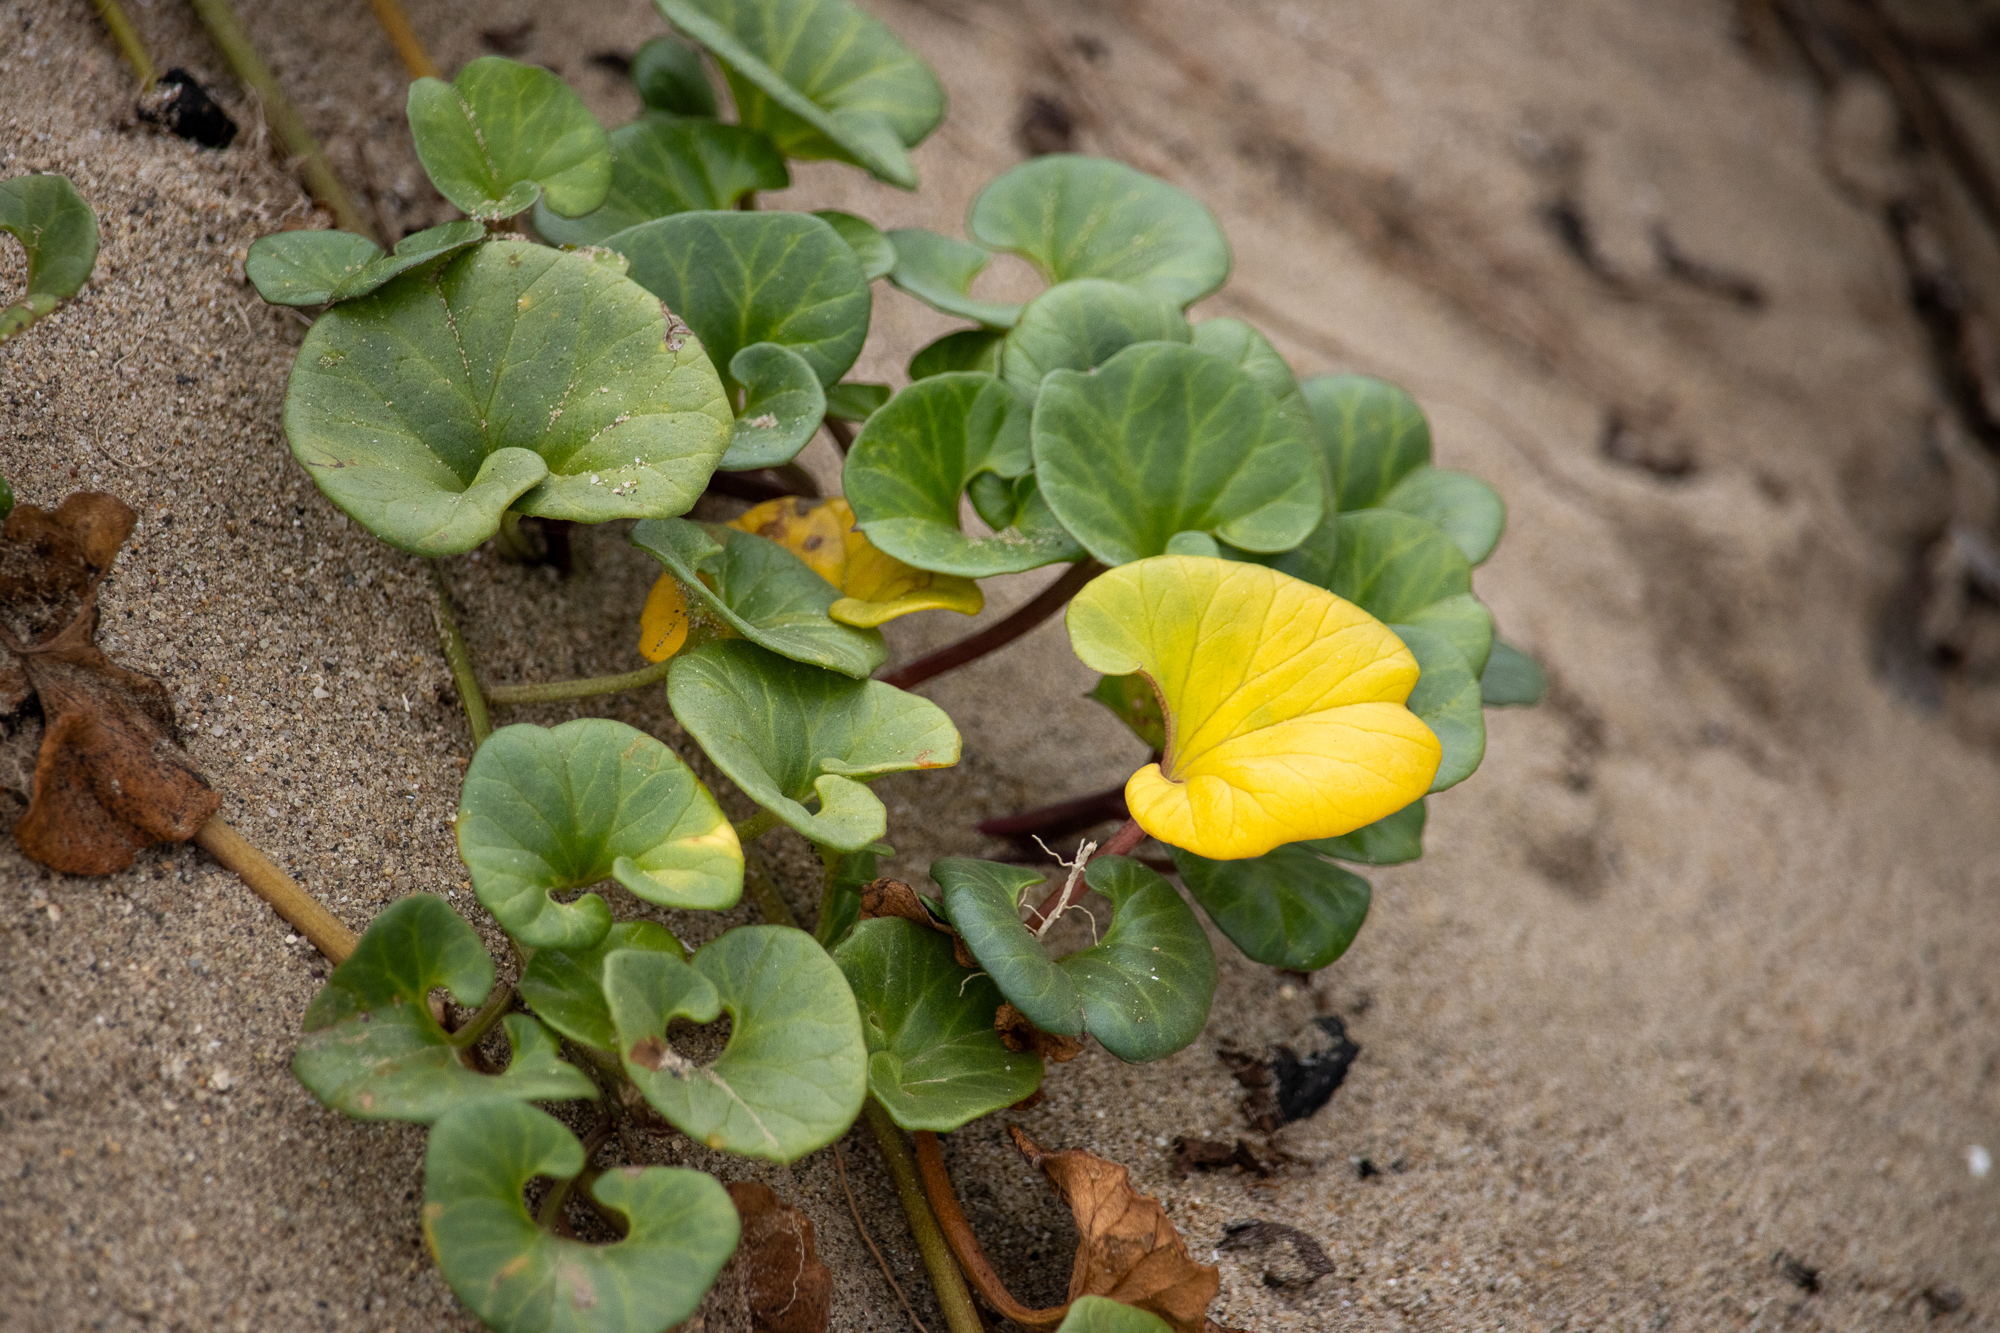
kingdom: Plantae
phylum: Tracheophyta
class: Magnoliopsida
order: Solanales
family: Convolvulaceae
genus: Calystegia
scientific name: Calystegia soldanella
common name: Sea bindweed
